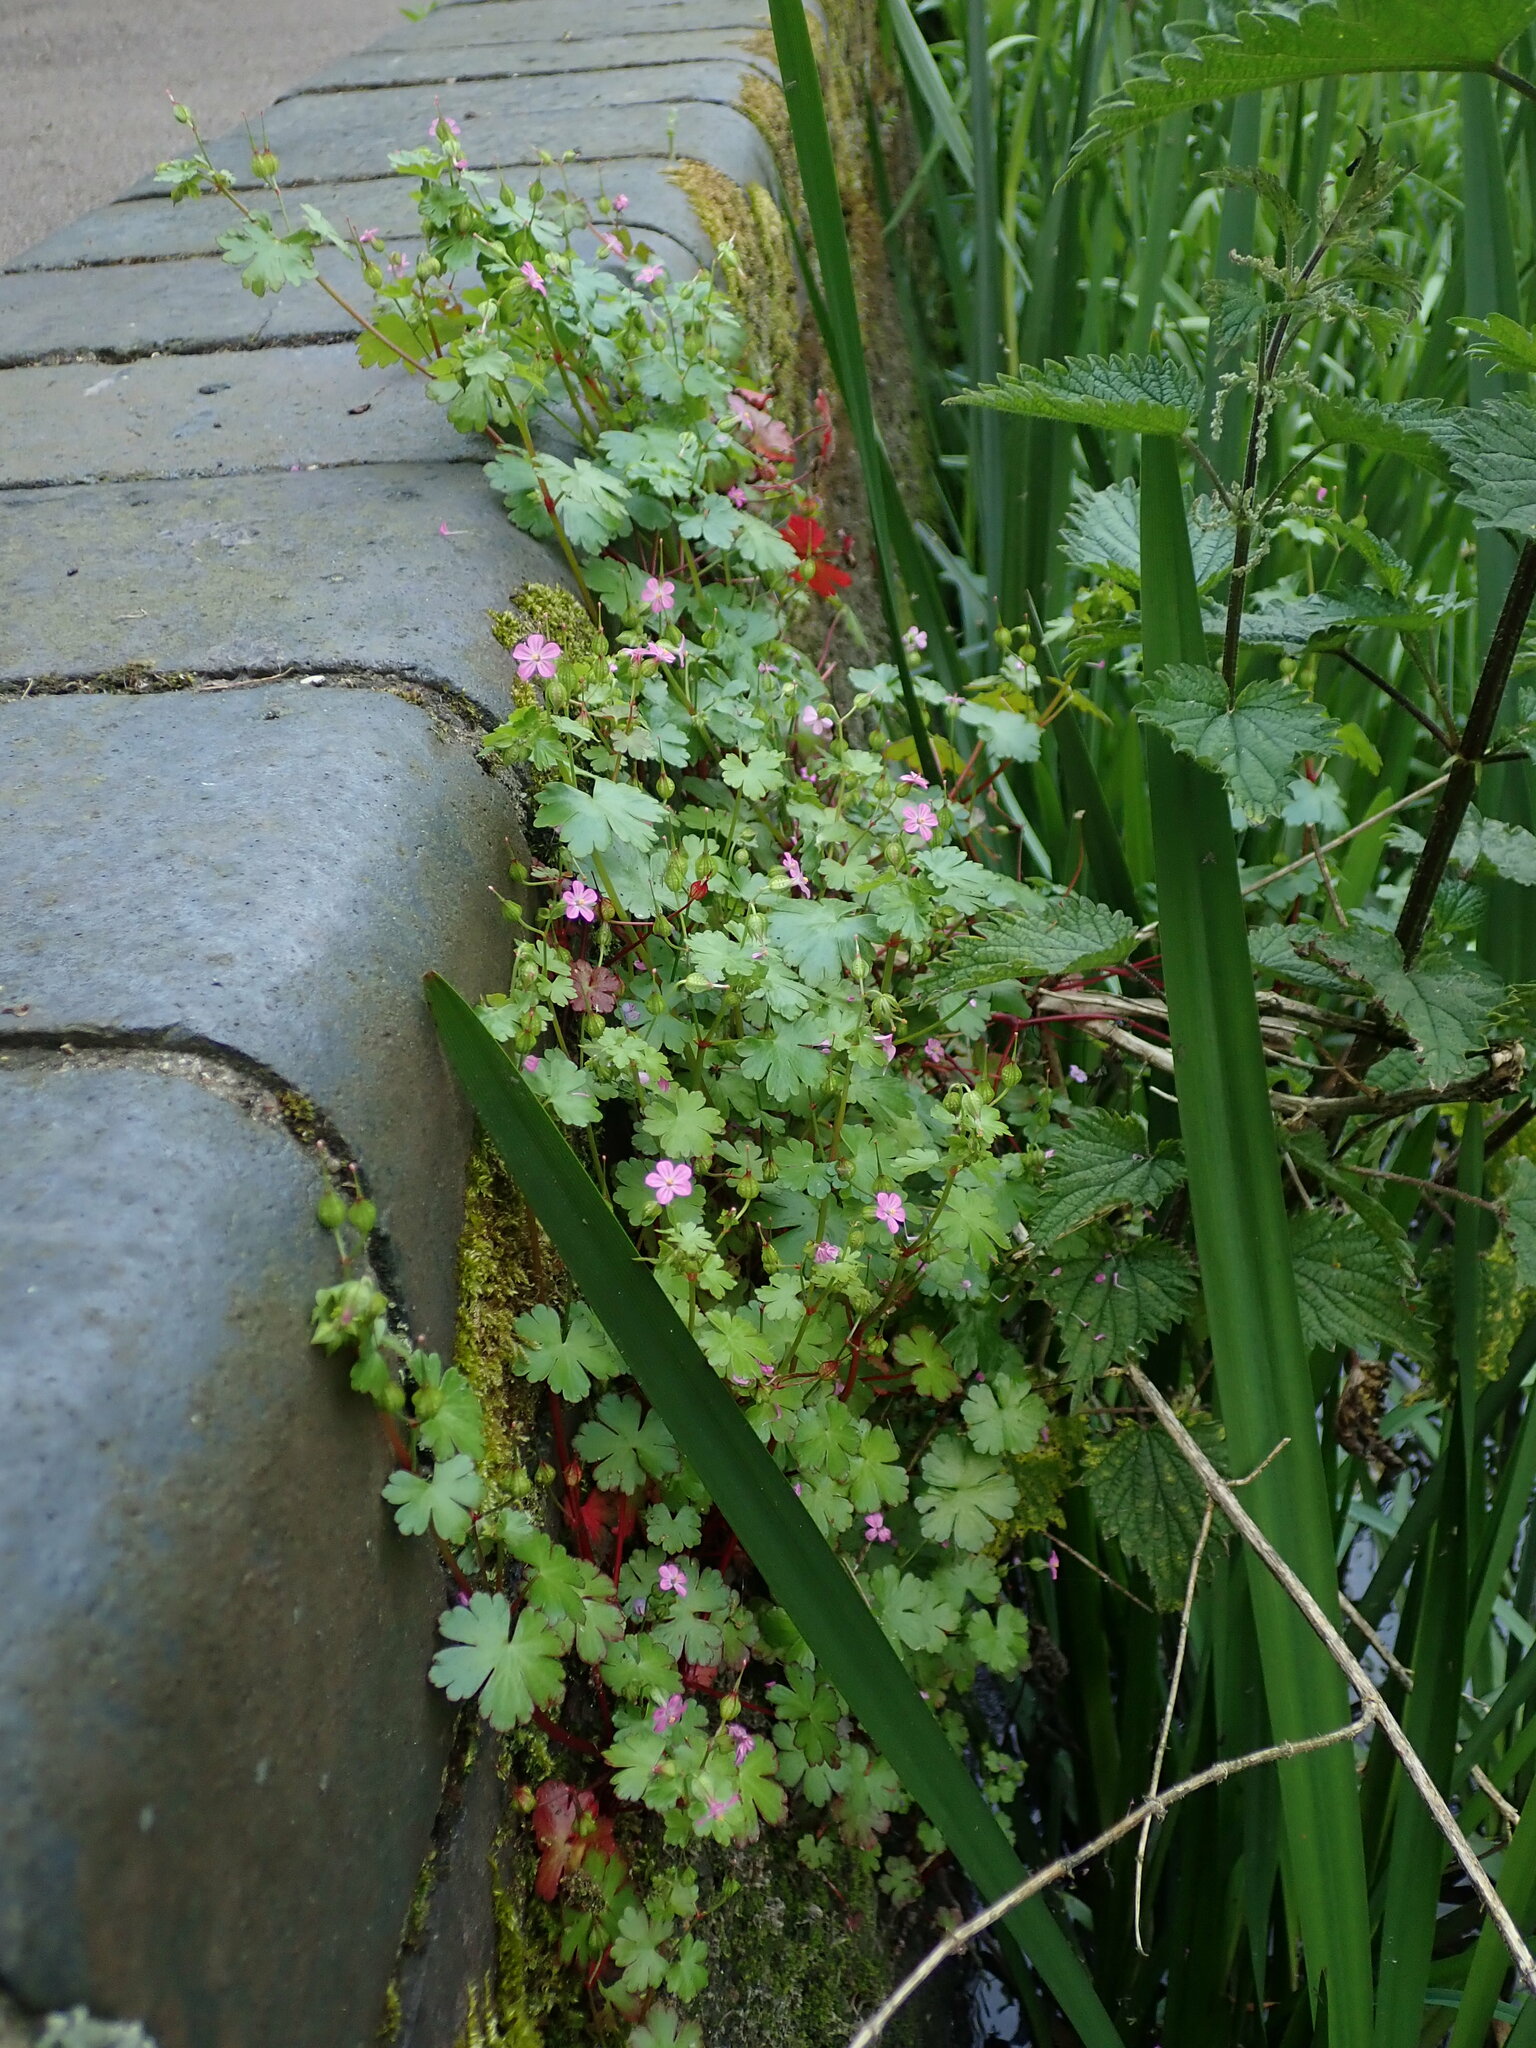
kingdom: Plantae
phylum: Tracheophyta
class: Magnoliopsida
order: Geraniales
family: Geraniaceae
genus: Geranium
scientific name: Geranium lucidum
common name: Shining crane's-bill
